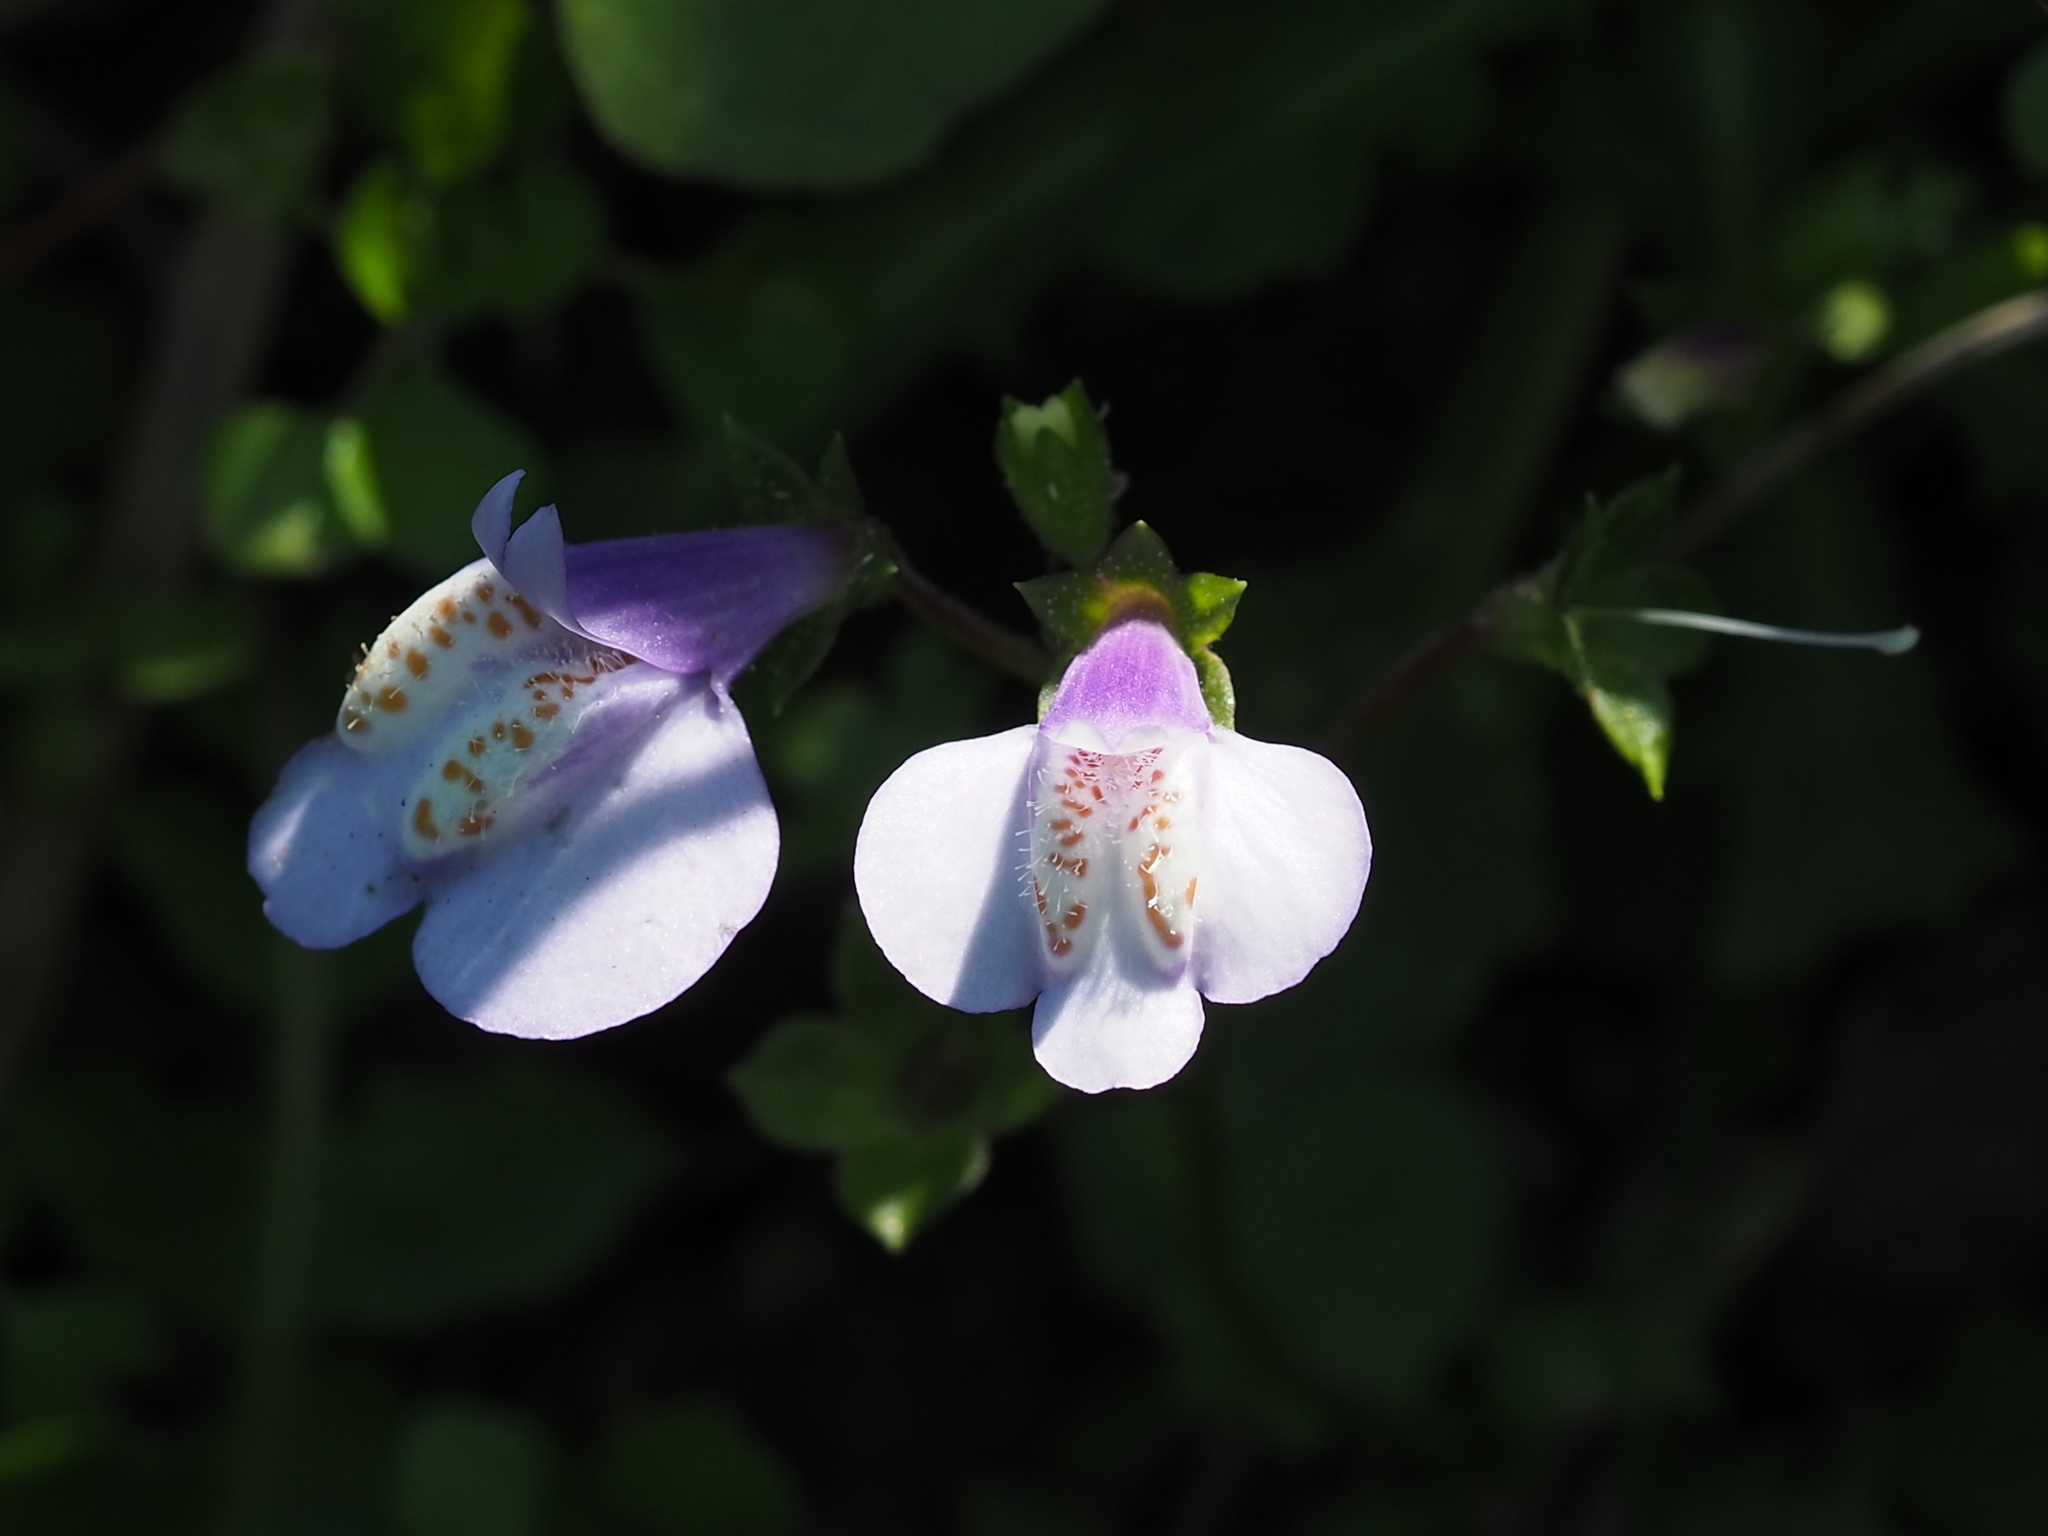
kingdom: Plantae
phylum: Tracheophyta
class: Magnoliopsida
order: Lamiales
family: Mazaceae
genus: Mazus
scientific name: Mazus fauriei
